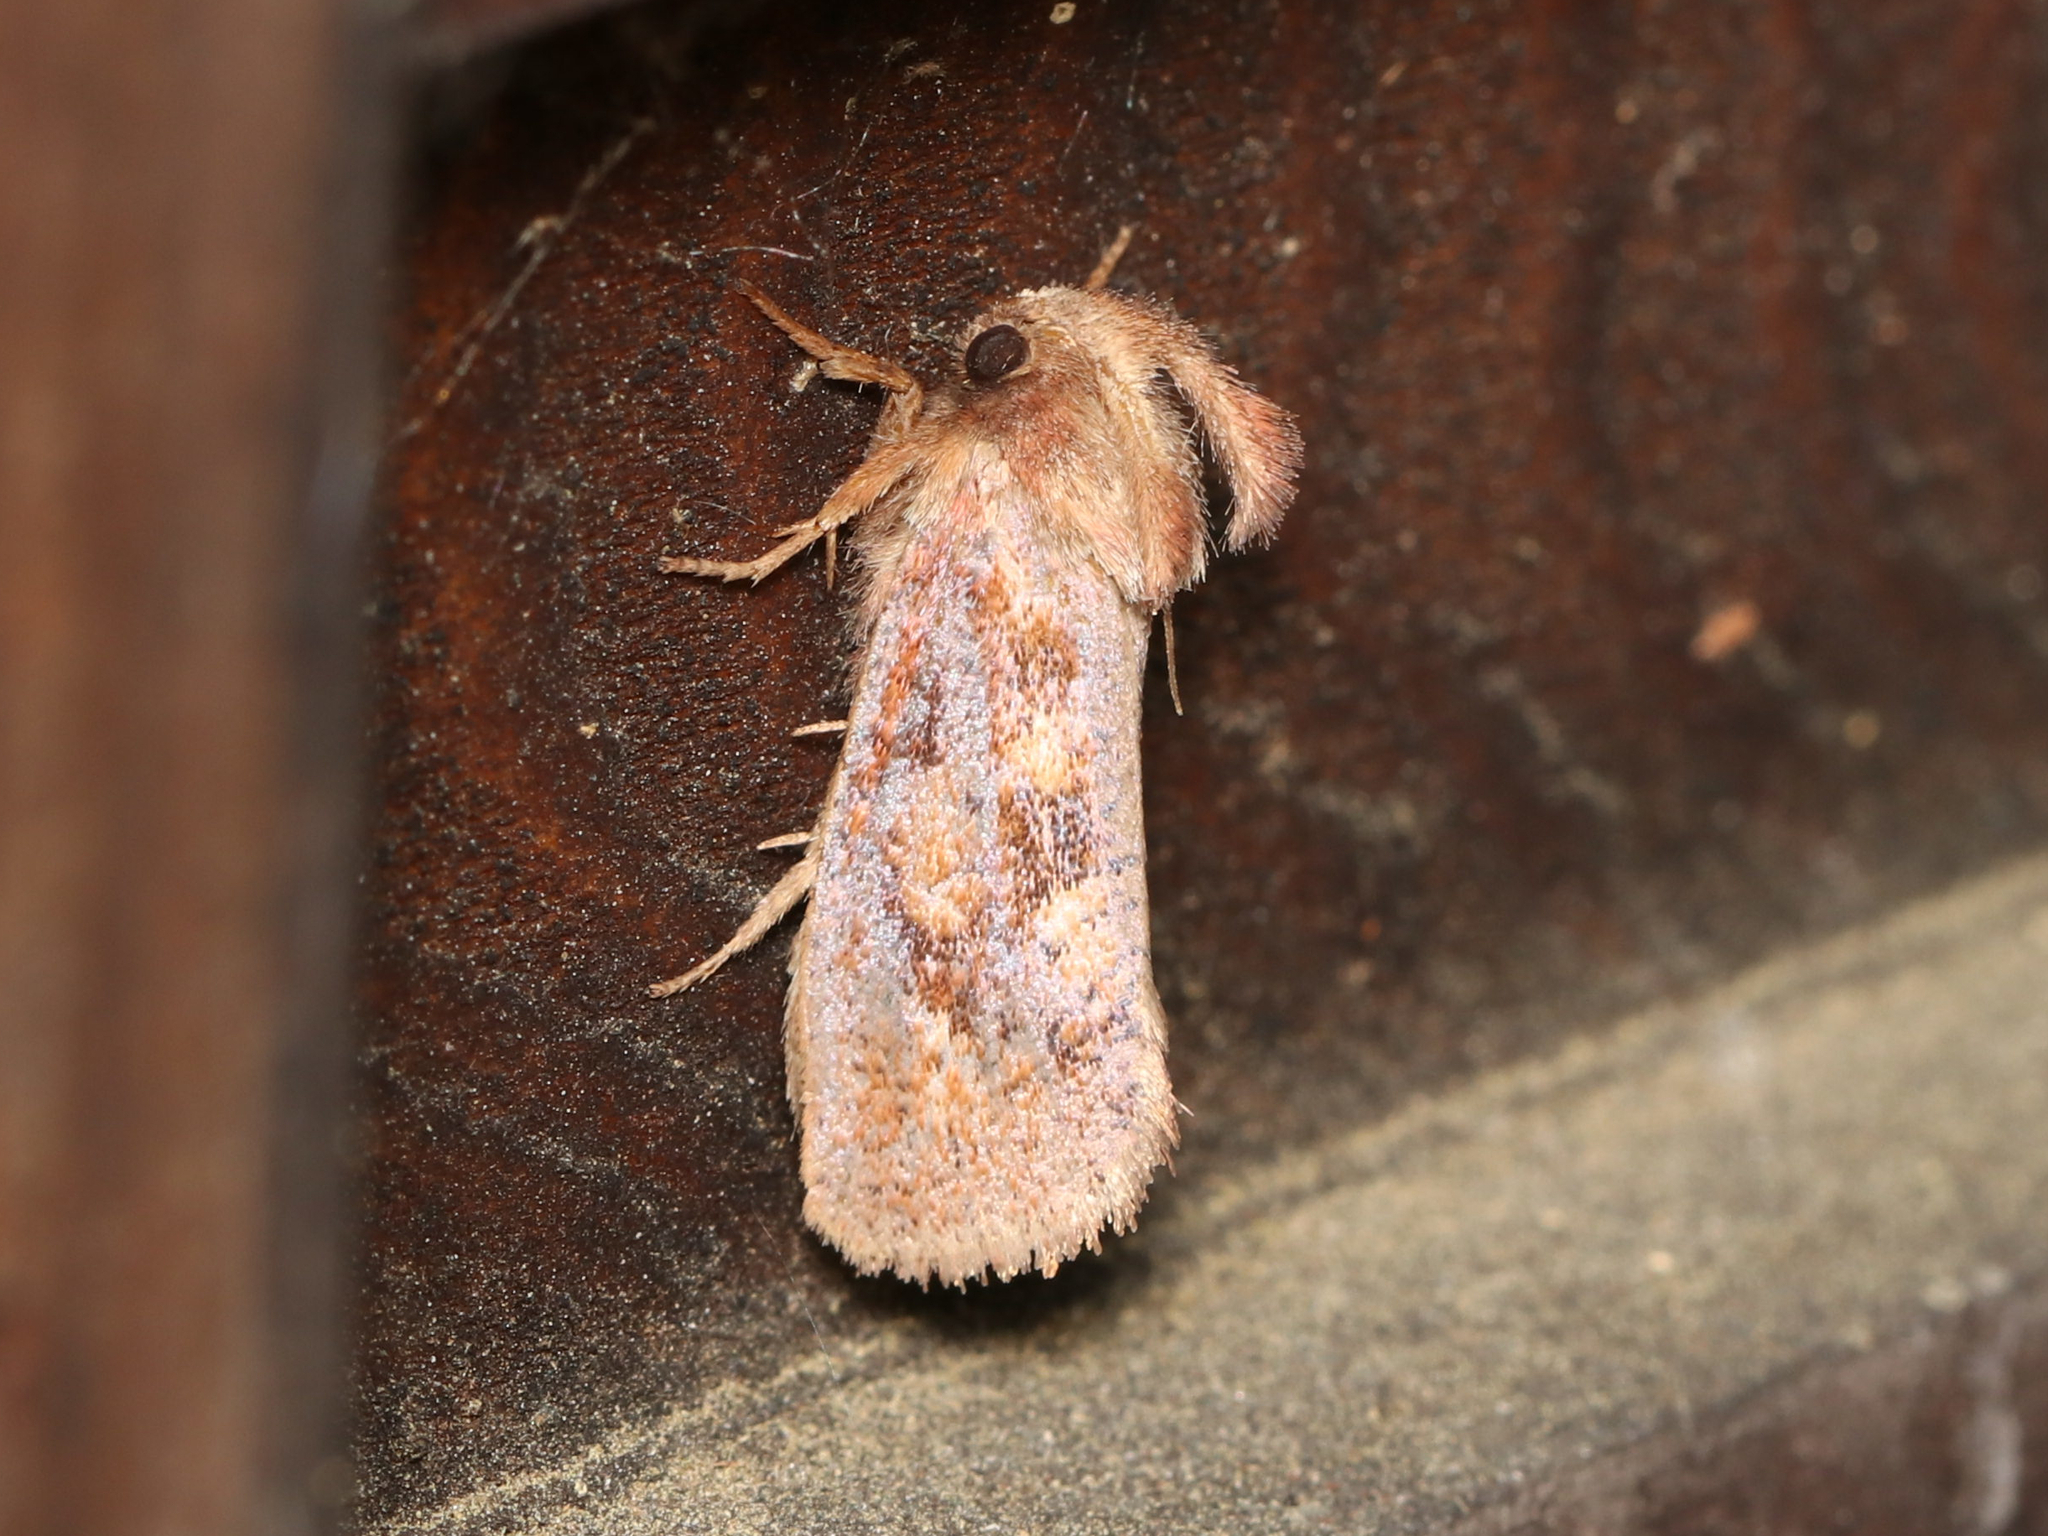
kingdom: Animalia
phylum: Arthropoda
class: Insecta
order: Lepidoptera
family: Tineidae
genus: Acrolophus
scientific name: Acrolophus plumifrontella
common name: Eastern grass tubeworm moth
